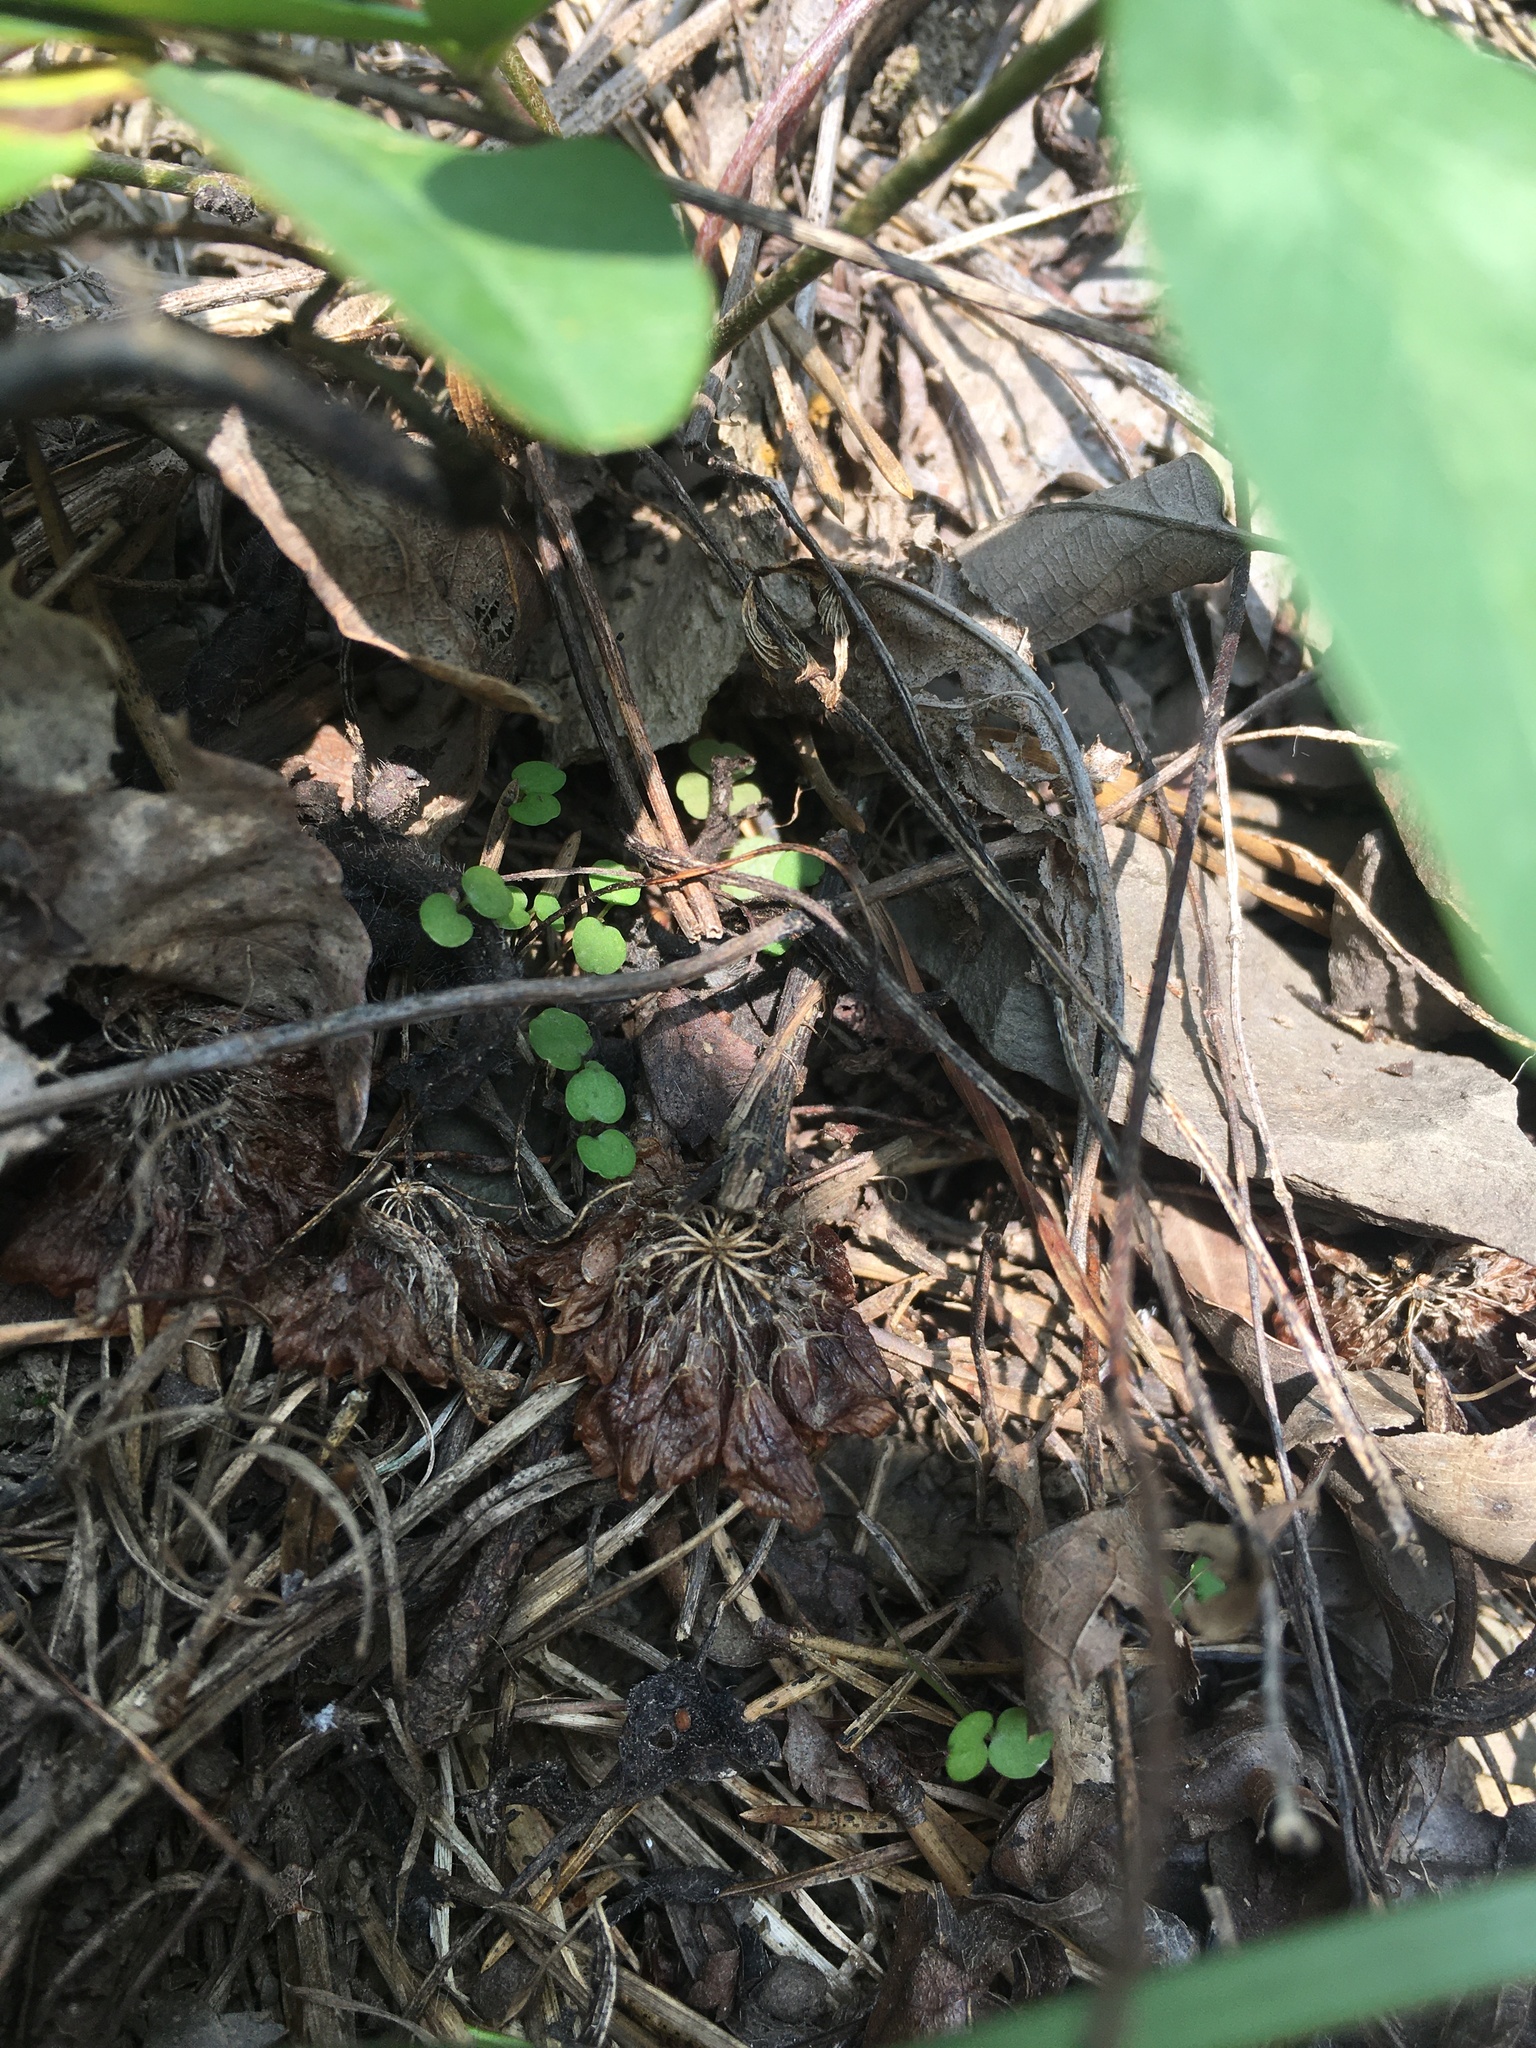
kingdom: Plantae
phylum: Tracheophyta
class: Magnoliopsida
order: Fabales
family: Fabaceae
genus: Trifolium
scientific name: Trifolium virginicum
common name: Kate's mountain clover
